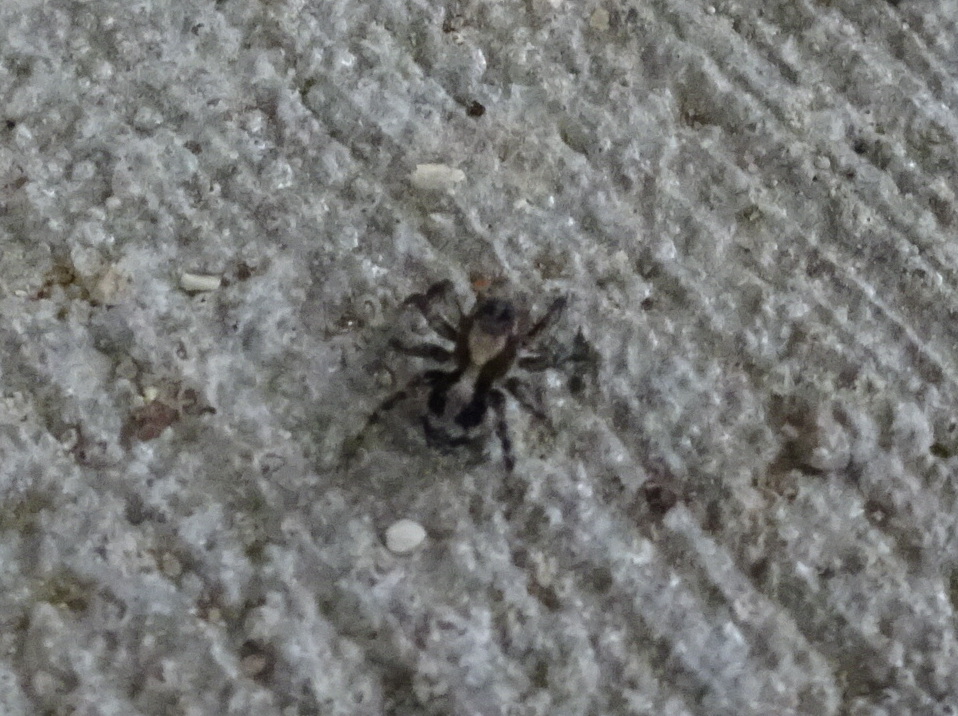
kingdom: Animalia
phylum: Arthropoda
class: Arachnida
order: Araneae
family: Salticidae
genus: Naphrys
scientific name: Naphrys pulex
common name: Flea jumping spider
